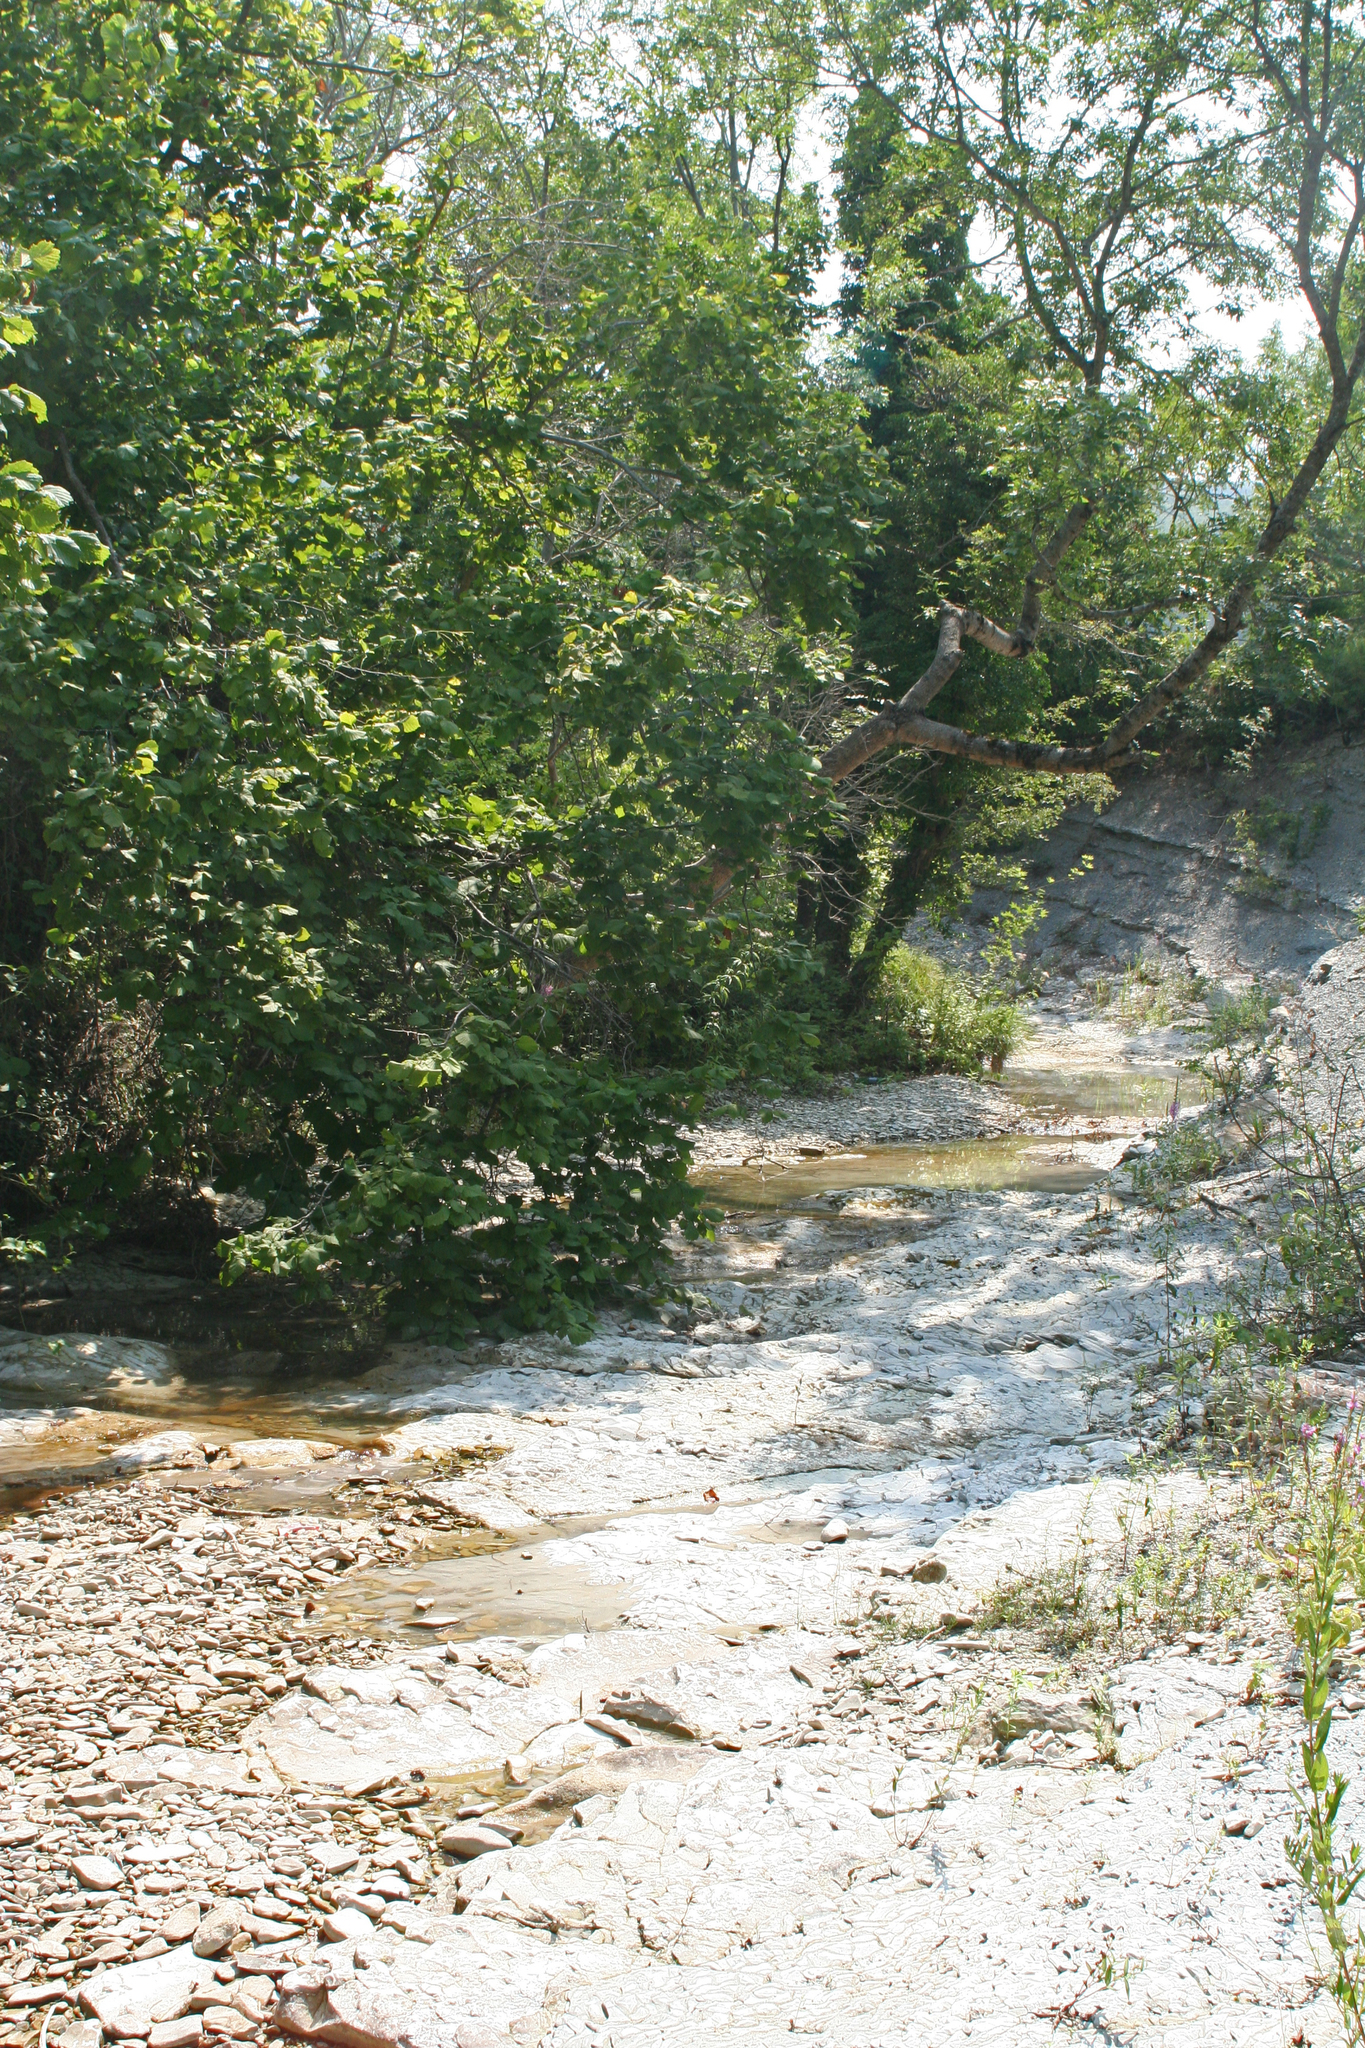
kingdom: Plantae
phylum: Tracheophyta
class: Magnoliopsida
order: Fagales
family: Betulaceae
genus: Corylus
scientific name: Corylus avellana
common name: European hazel
